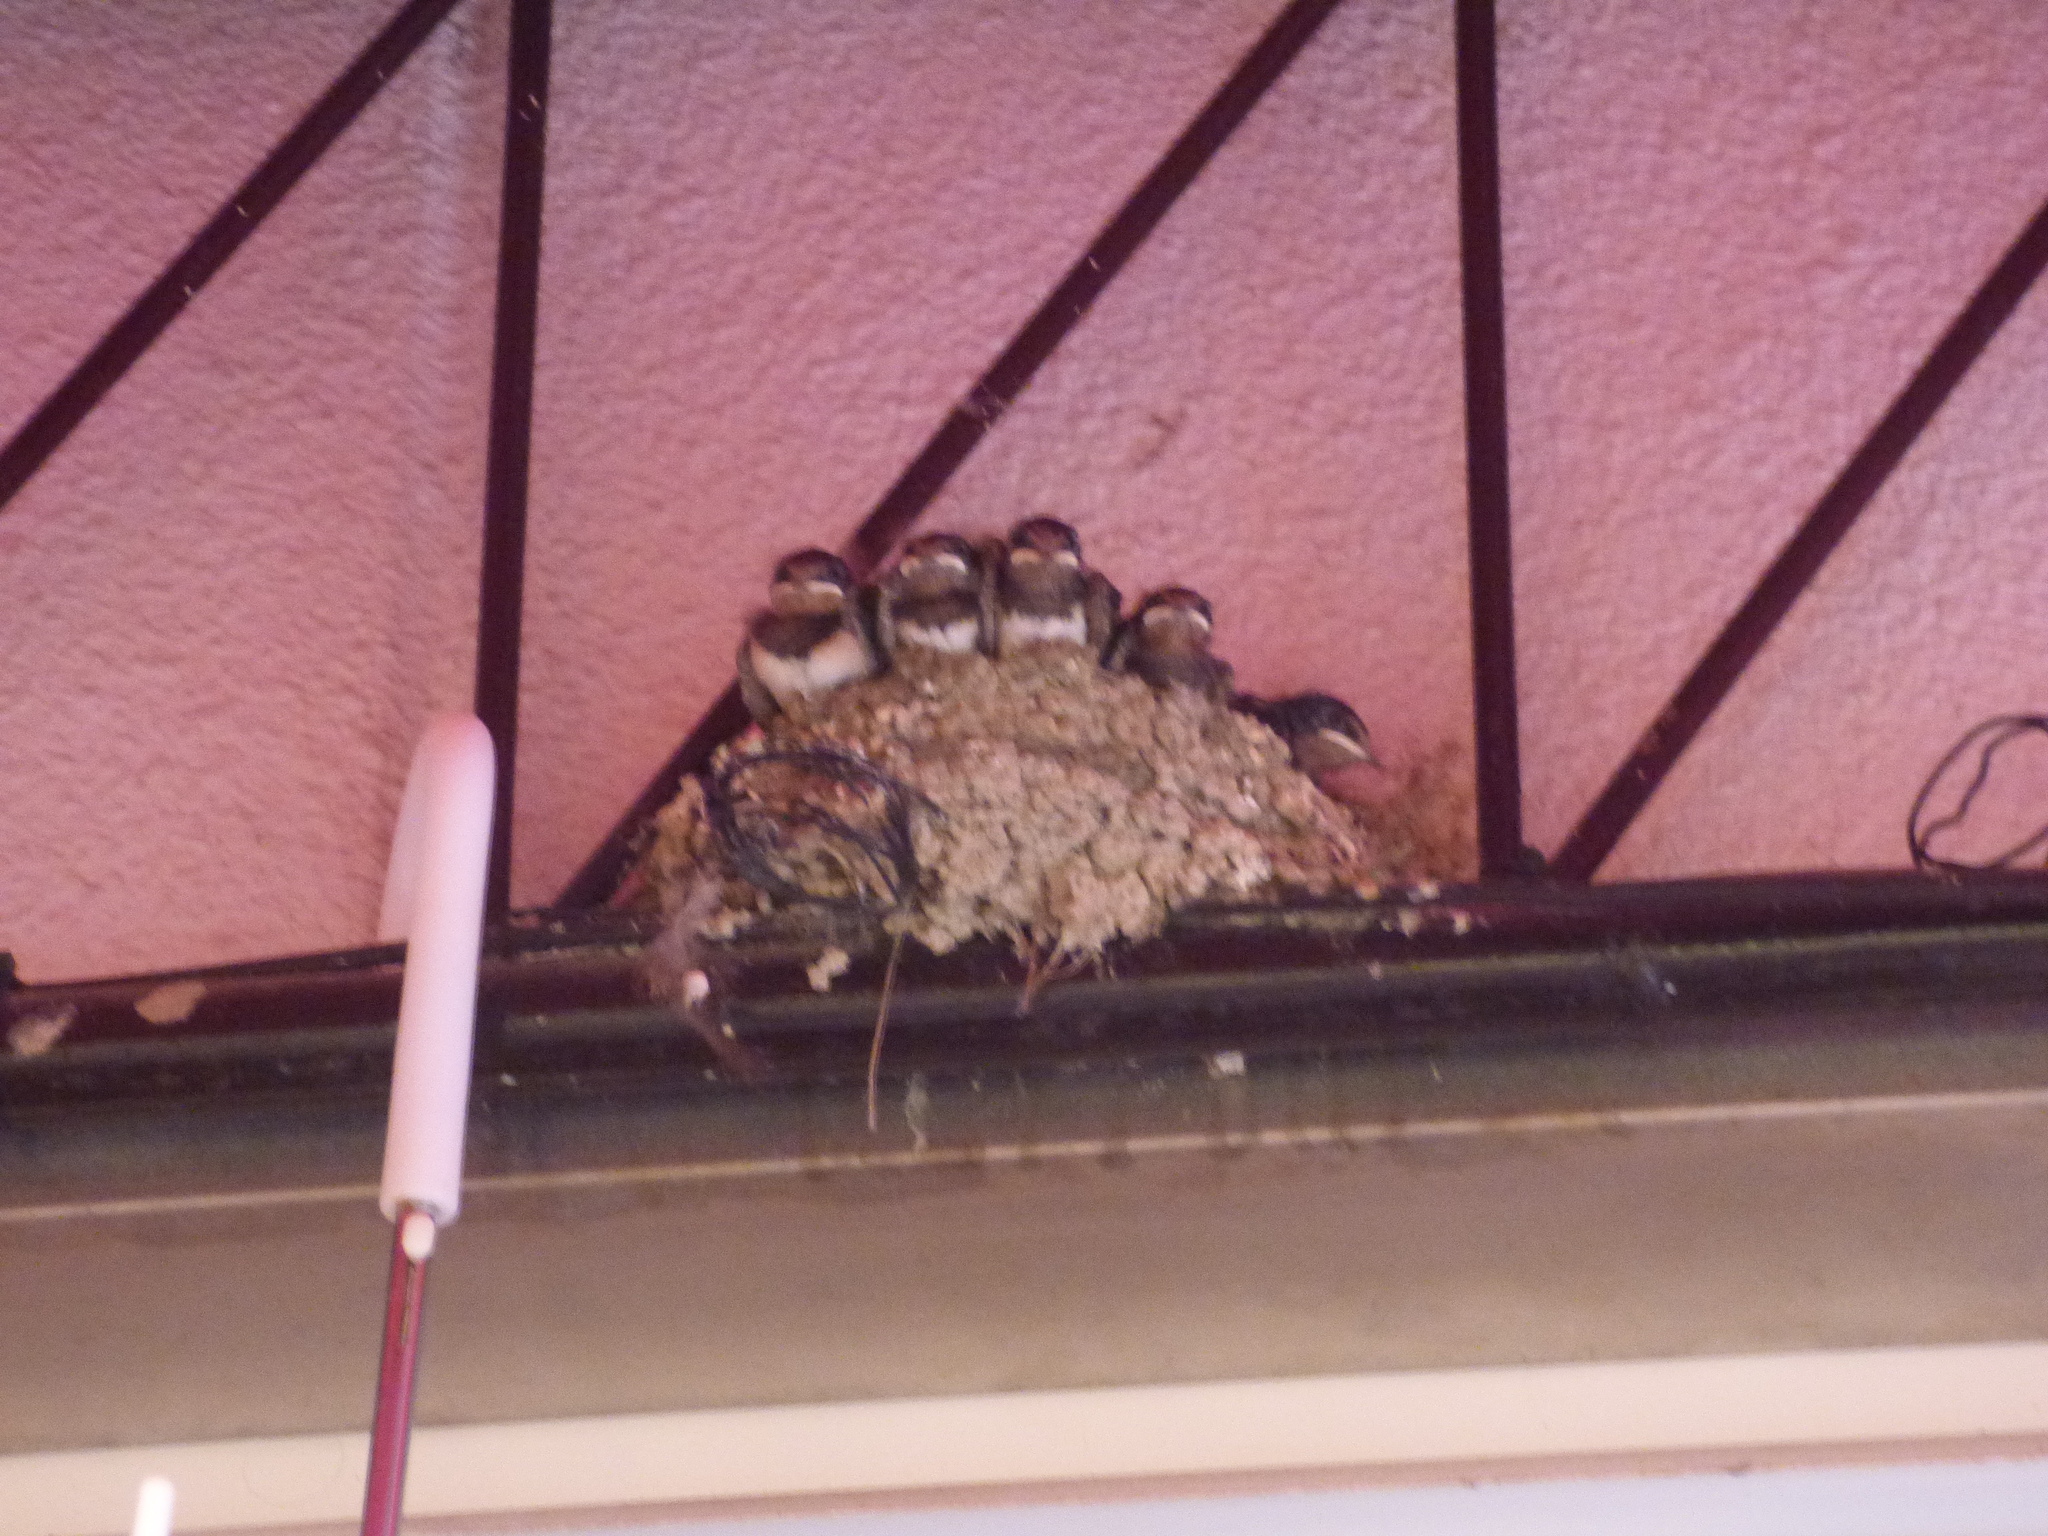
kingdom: Animalia
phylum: Chordata
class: Aves
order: Passeriformes
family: Hirundinidae
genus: Hirundo
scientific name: Hirundo rustica
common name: Barn swallow
